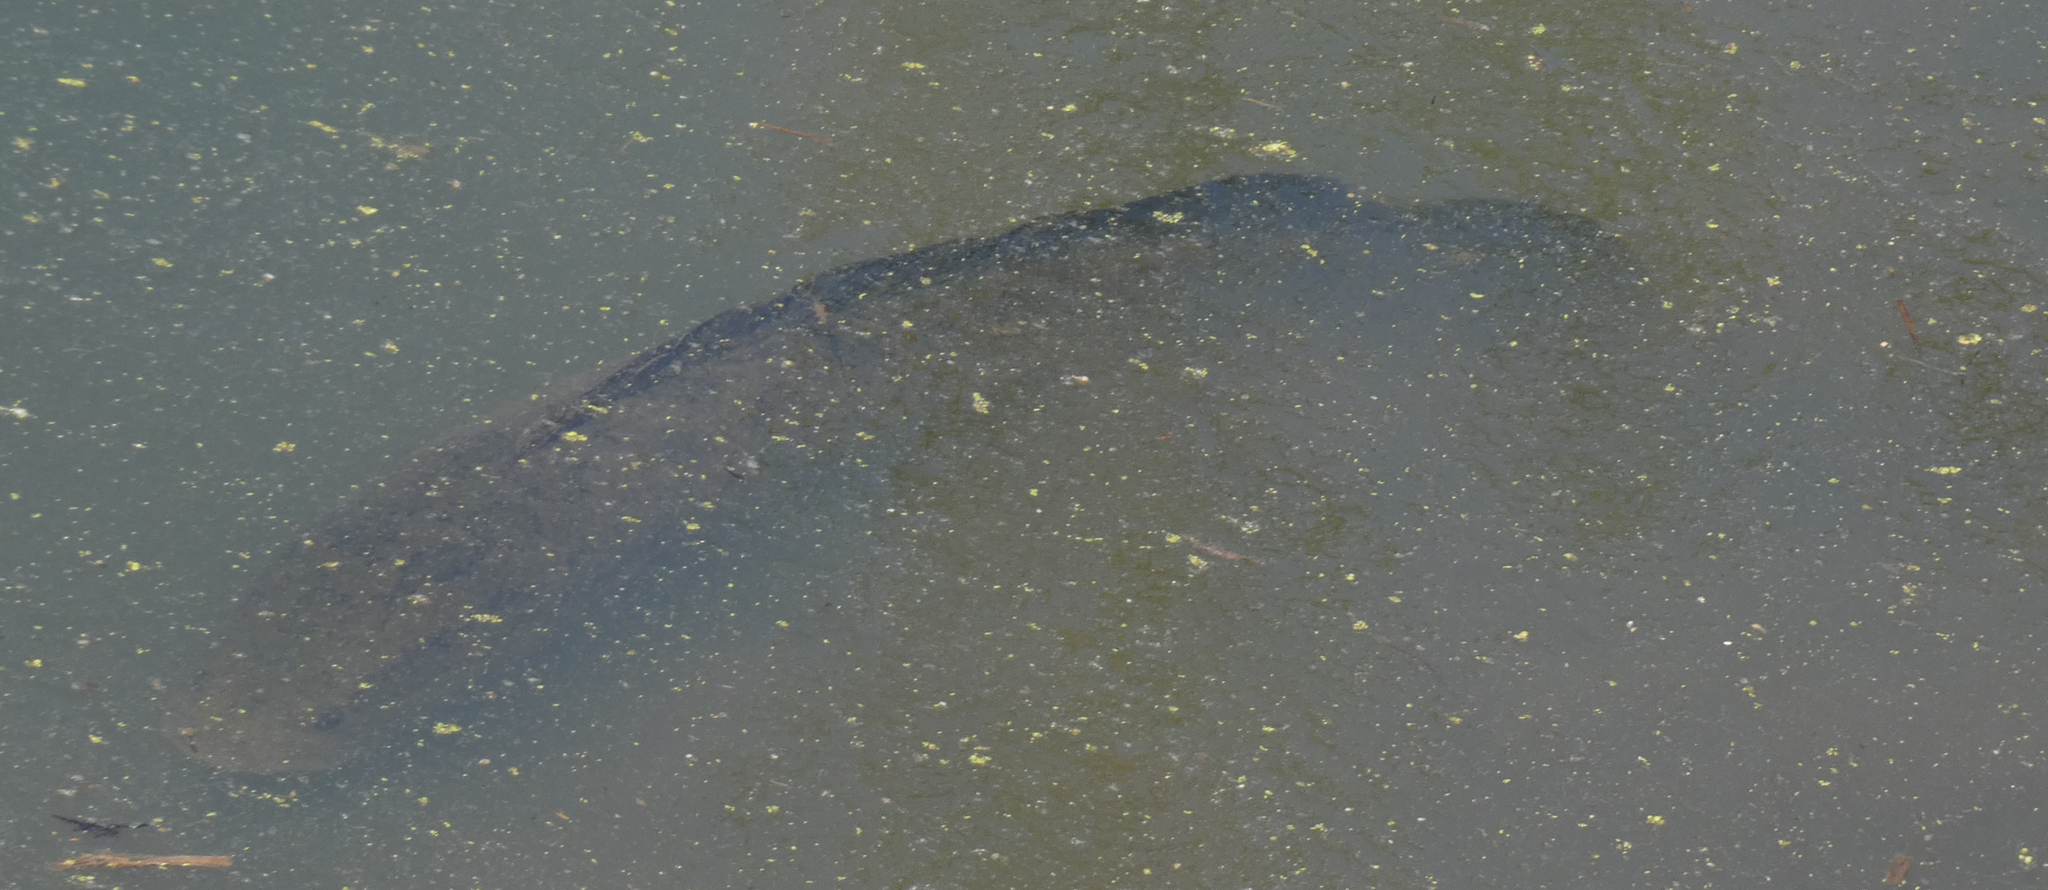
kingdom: Animalia
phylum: Chordata
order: Perciformes
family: Channidae
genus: Channa
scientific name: Channa argus
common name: Northern snakehead
